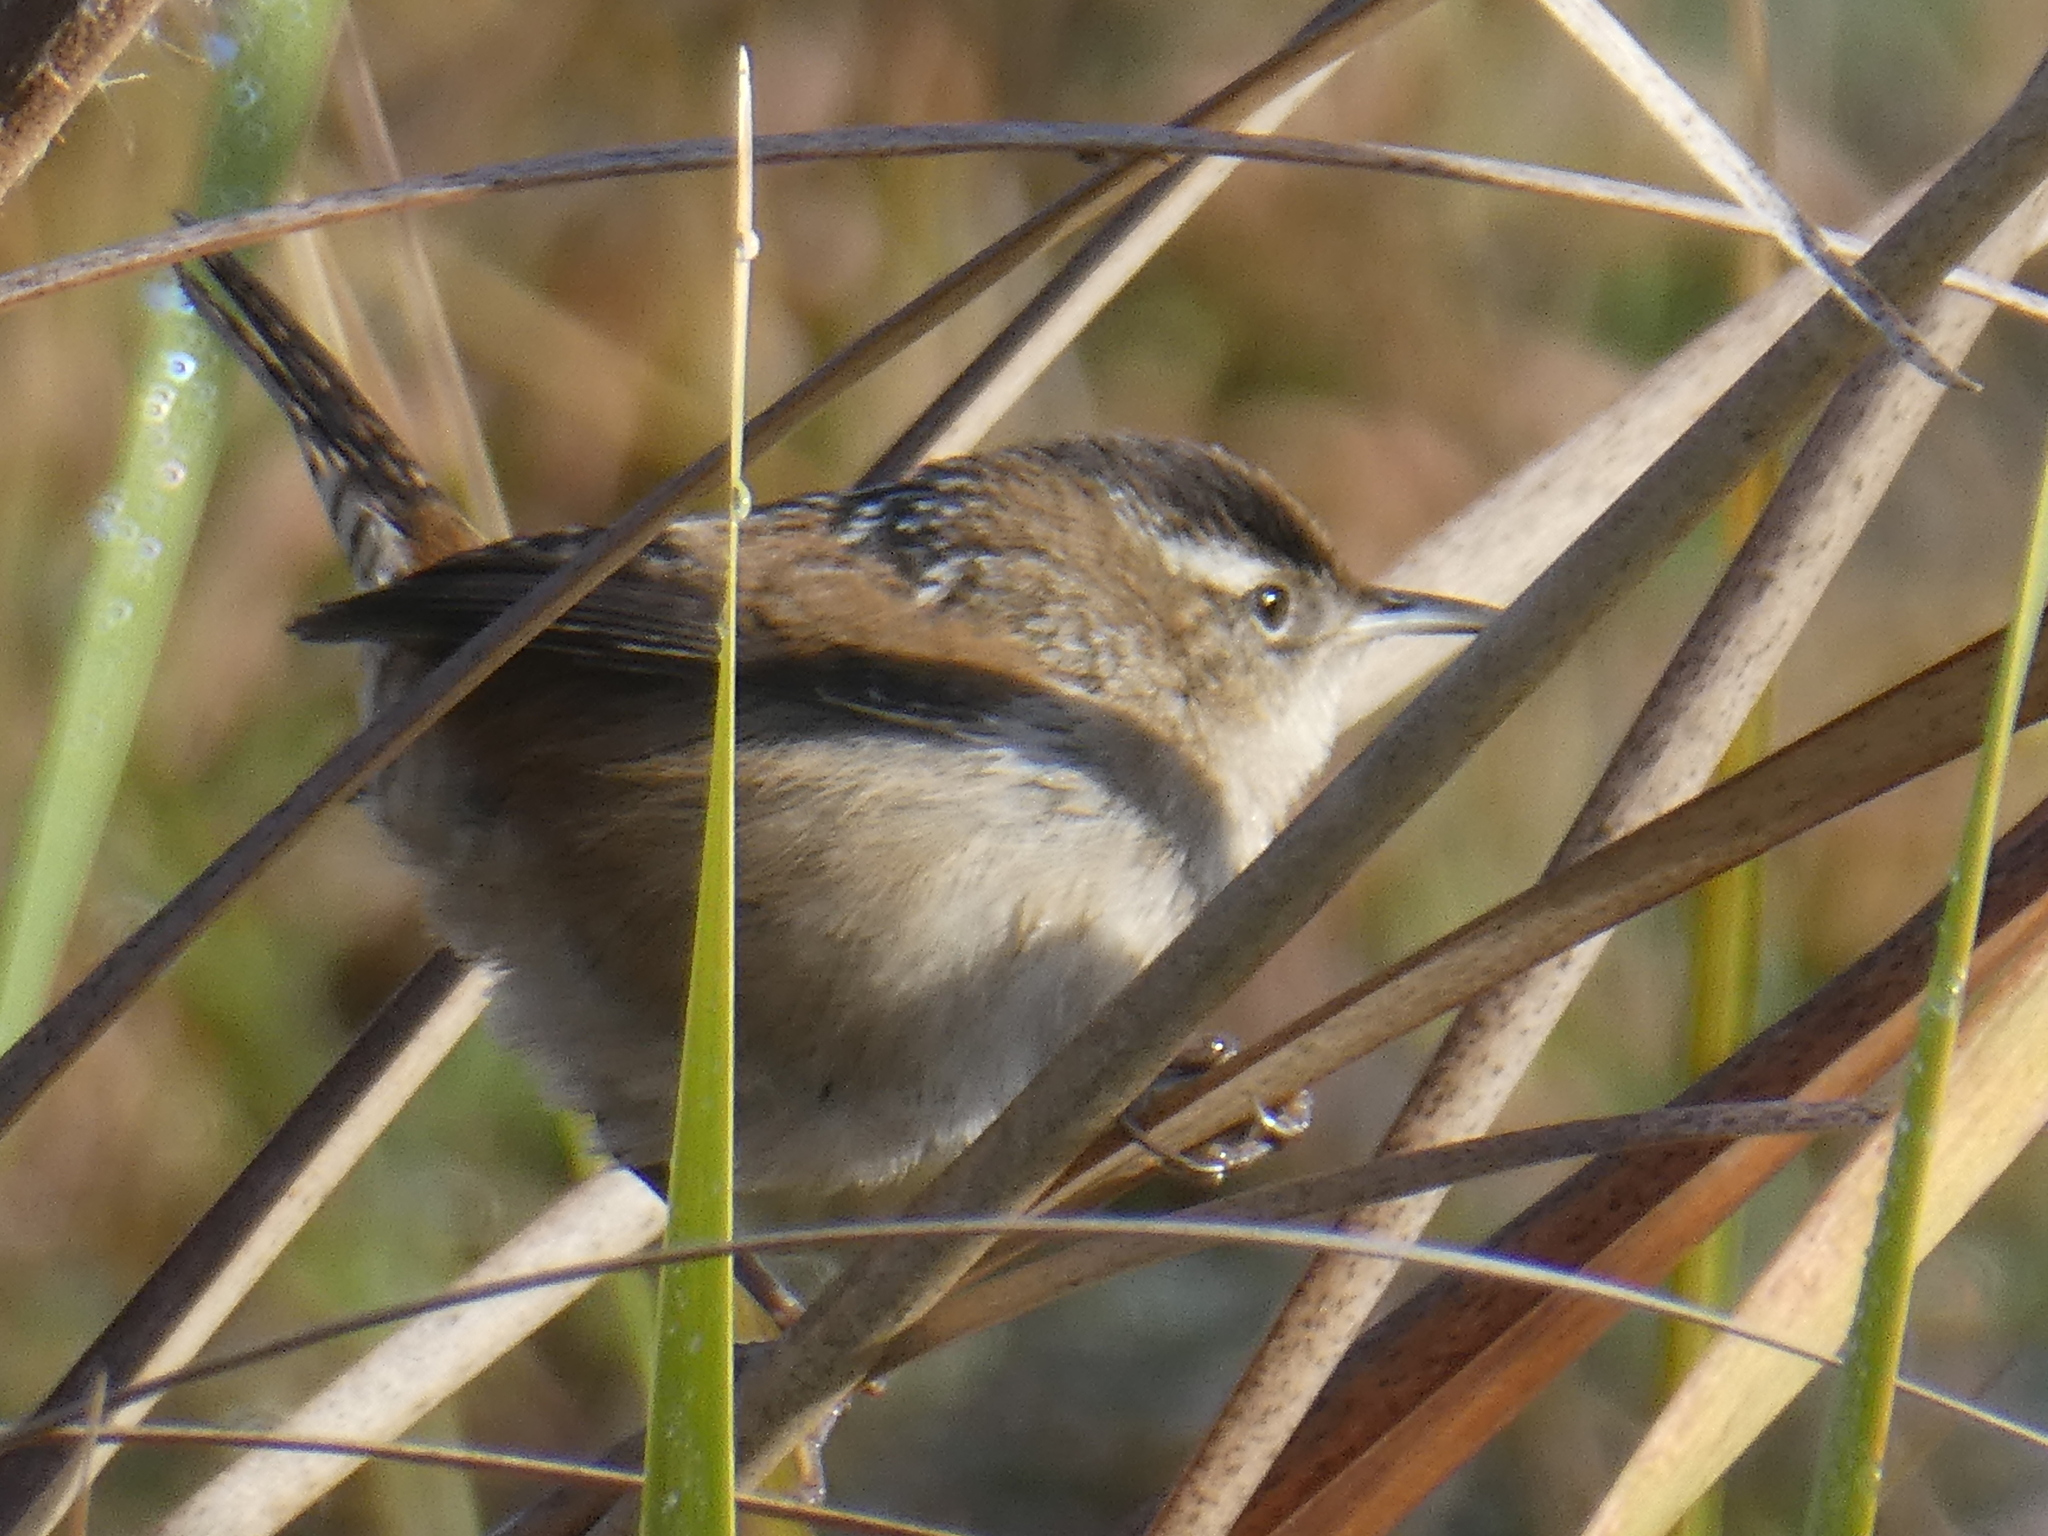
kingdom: Animalia
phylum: Chordata
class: Aves
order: Passeriformes
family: Troglodytidae
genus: Cistothorus
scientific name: Cistothorus palustris
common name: Marsh wren
